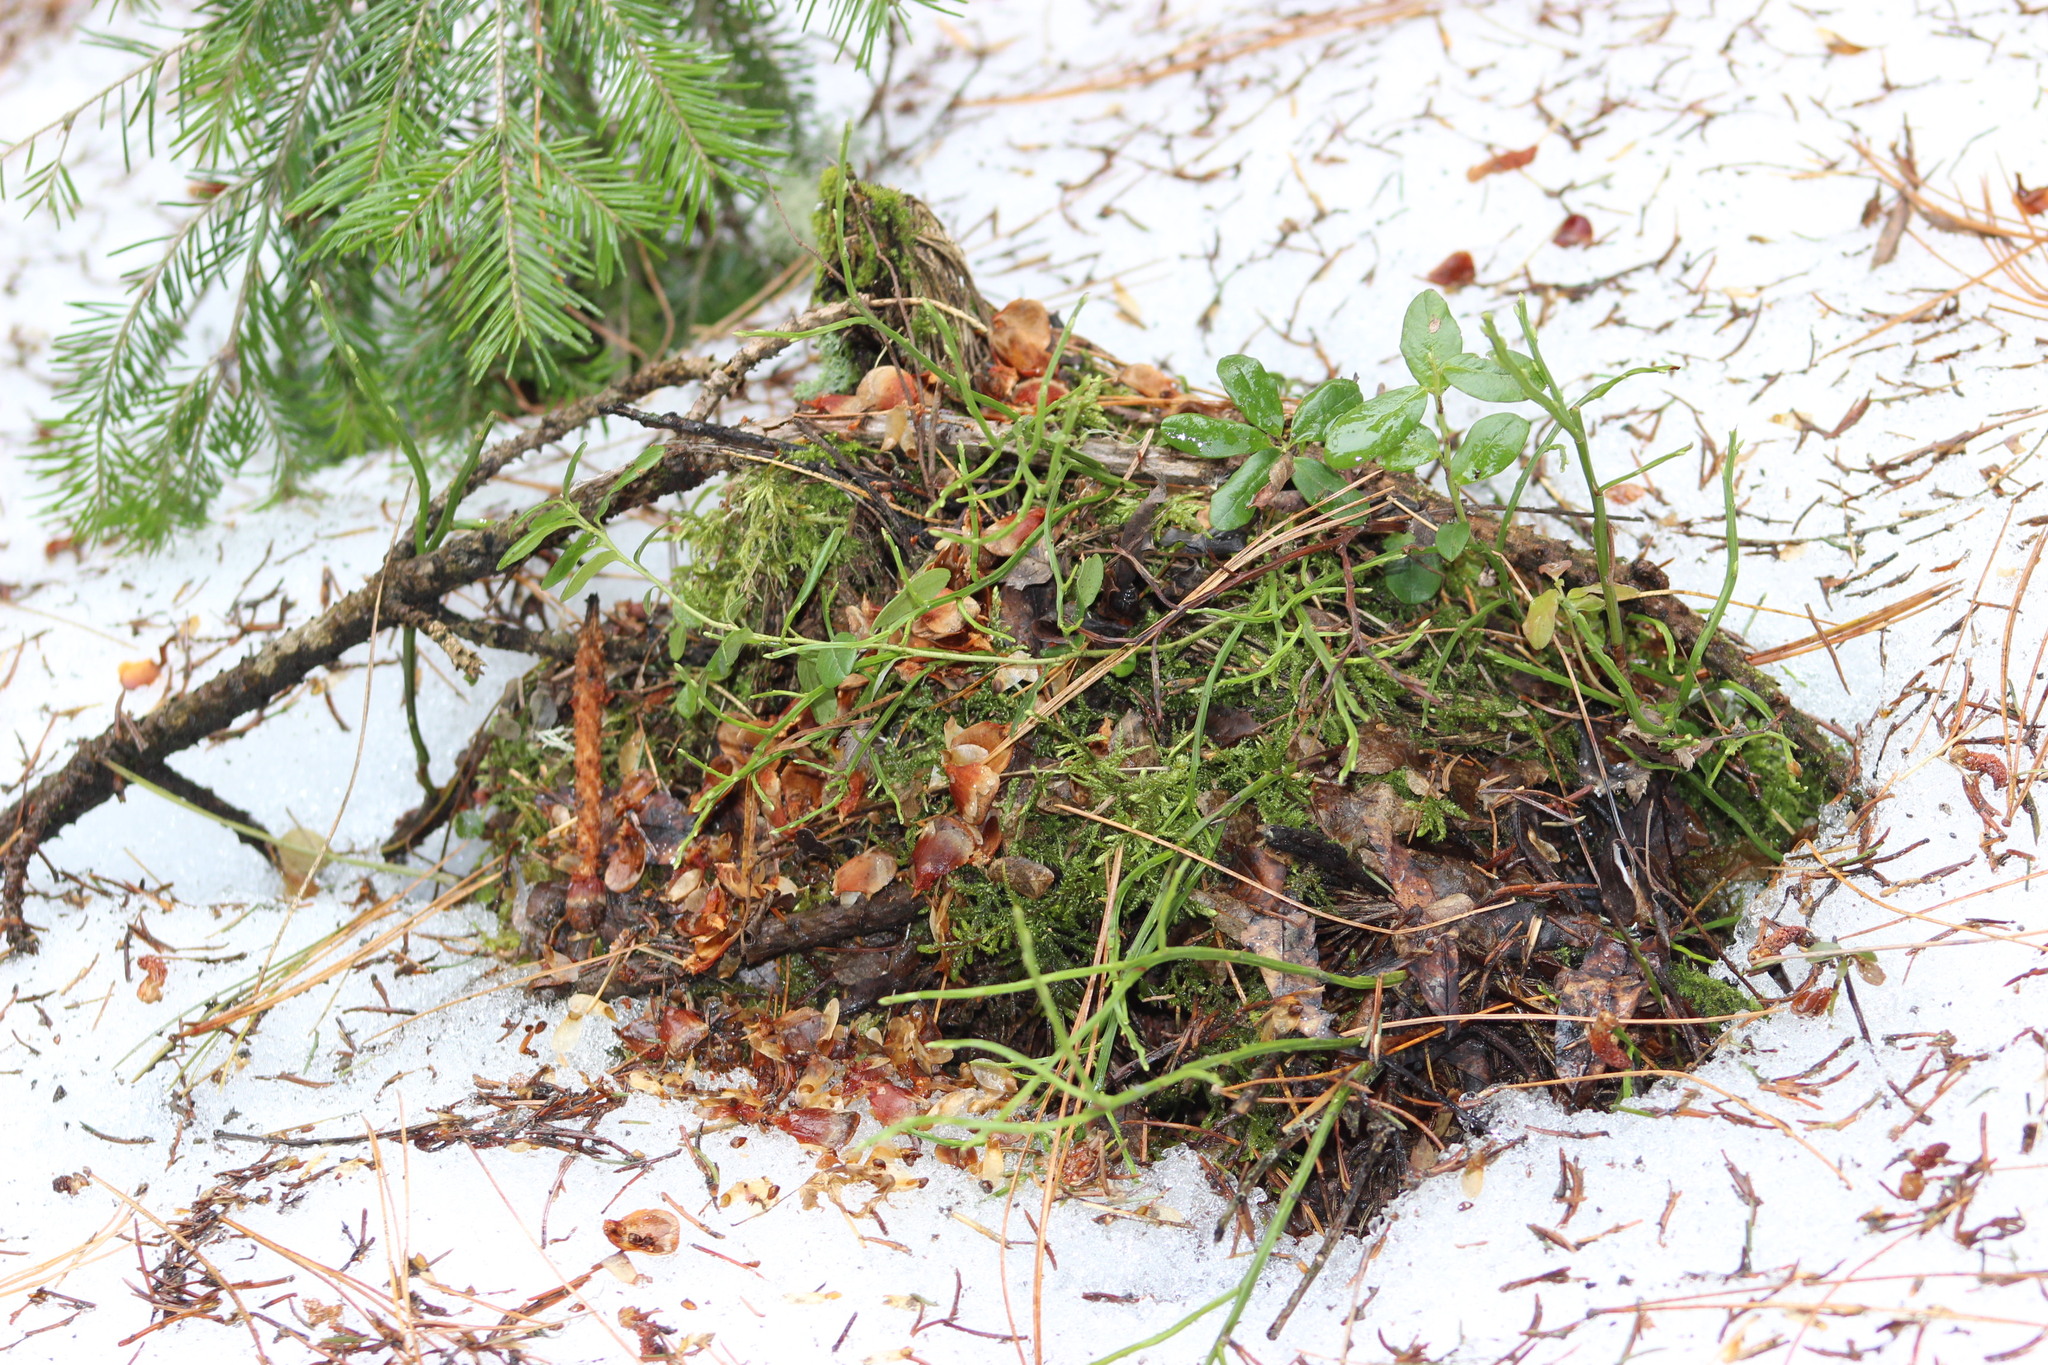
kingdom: Plantae
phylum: Tracheophyta
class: Magnoliopsida
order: Ericales
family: Ericaceae
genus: Vaccinium
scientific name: Vaccinium vitis-idaea
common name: Cowberry
